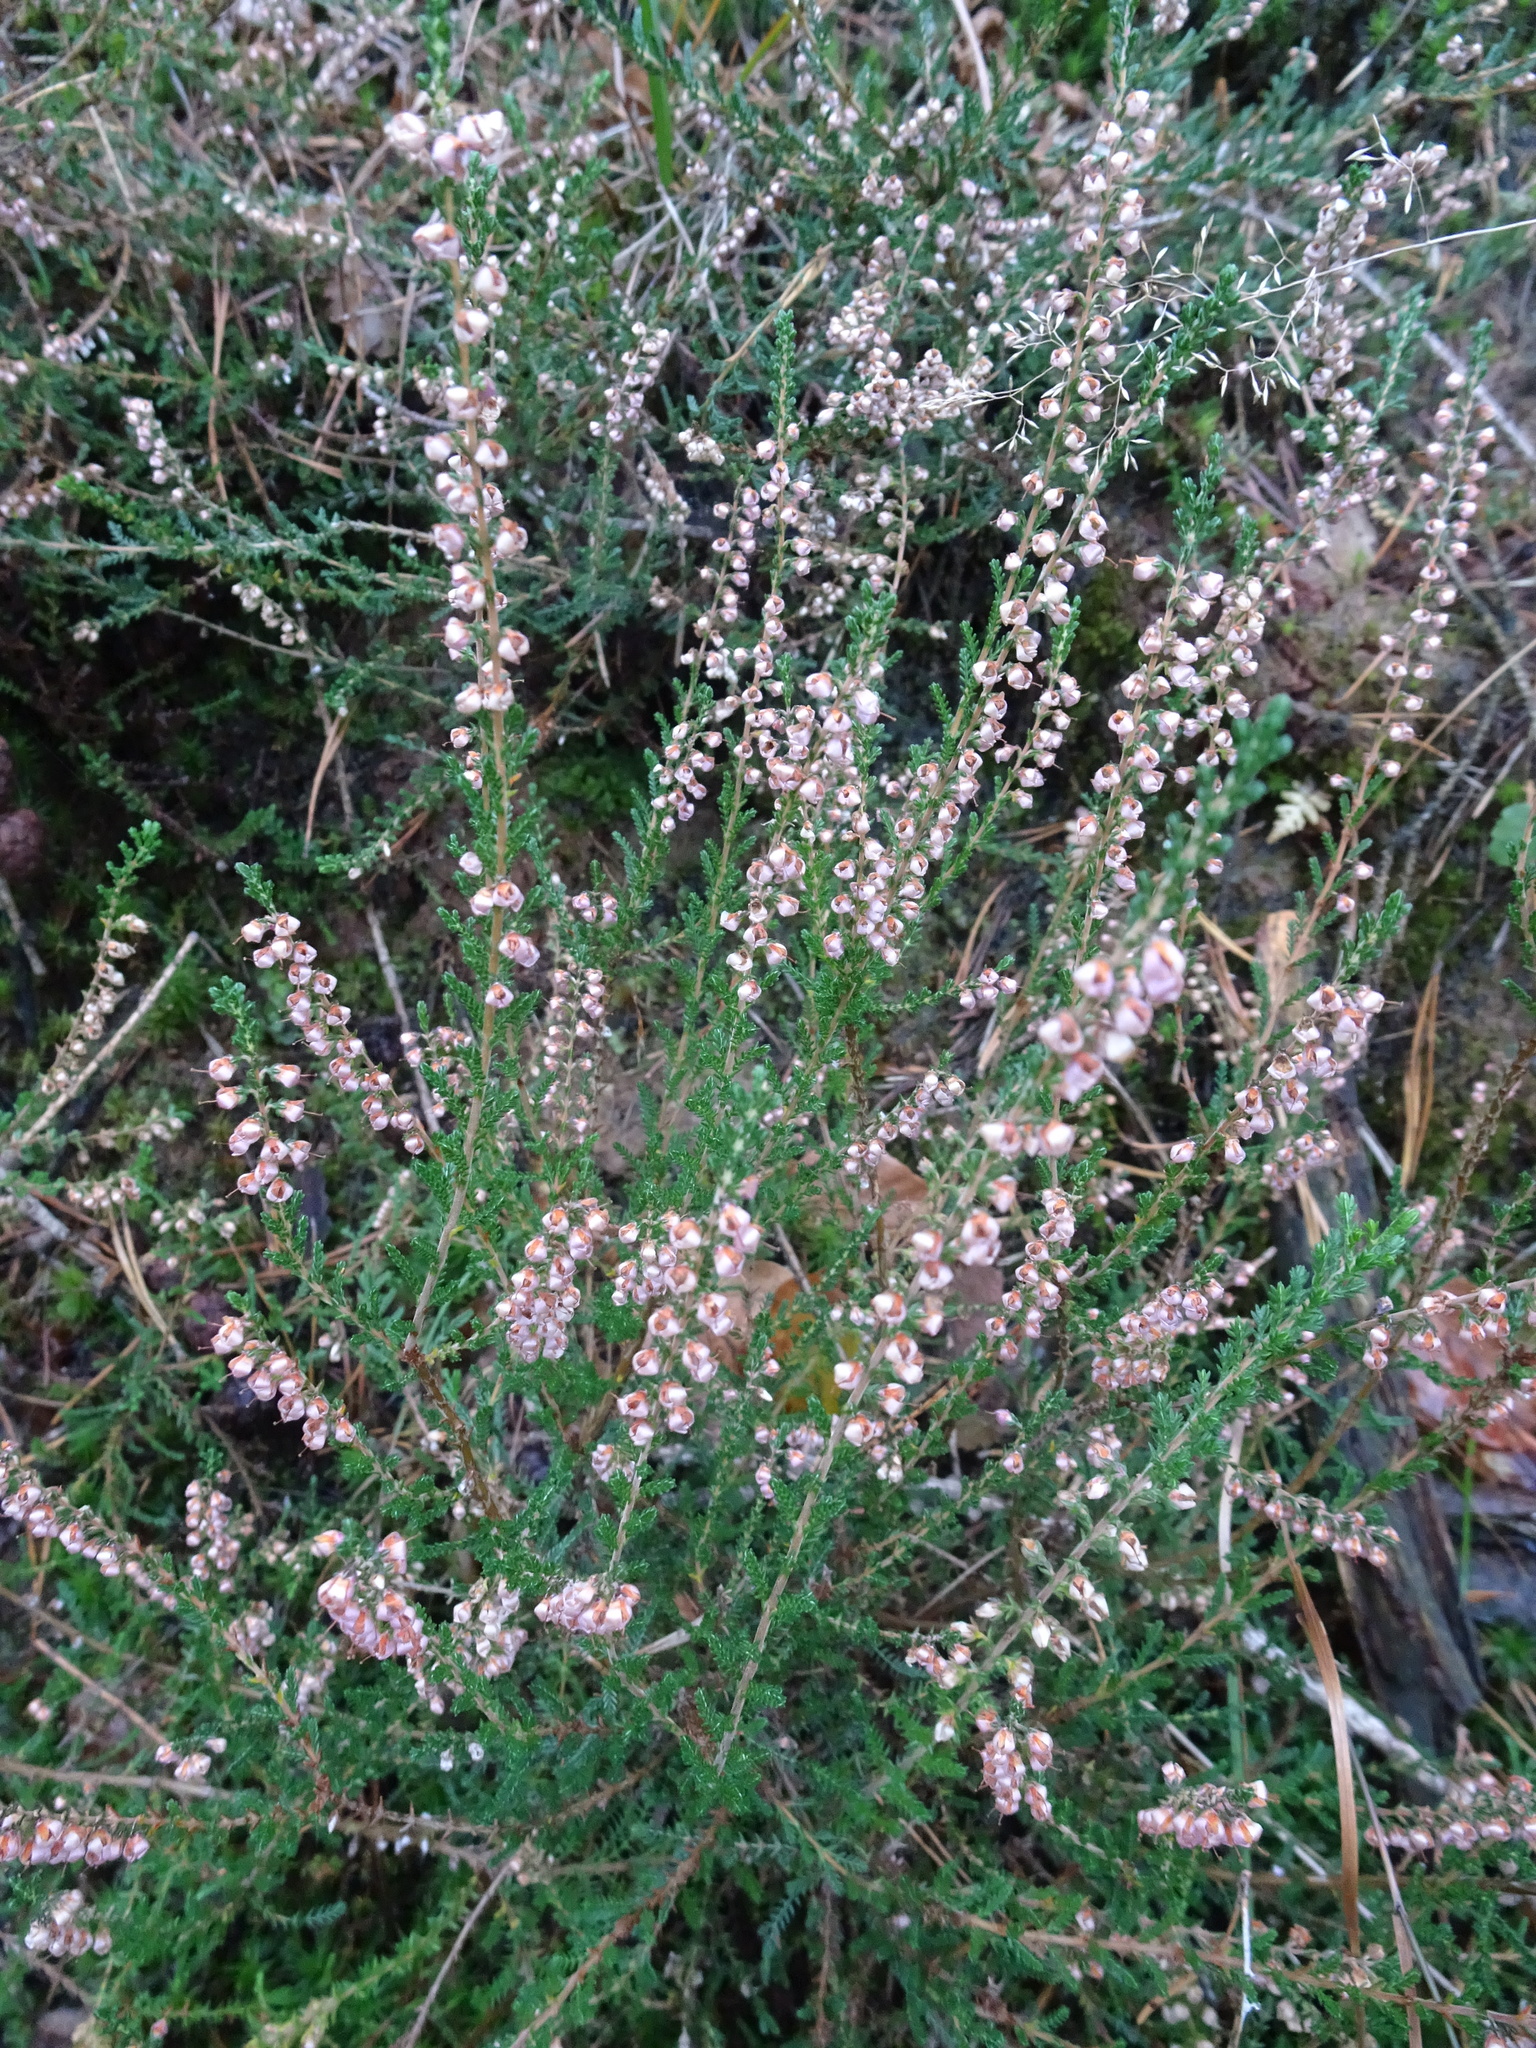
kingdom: Plantae
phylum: Tracheophyta
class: Magnoliopsida
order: Ericales
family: Ericaceae
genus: Calluna
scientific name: Calluna vulgaris
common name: Heather
